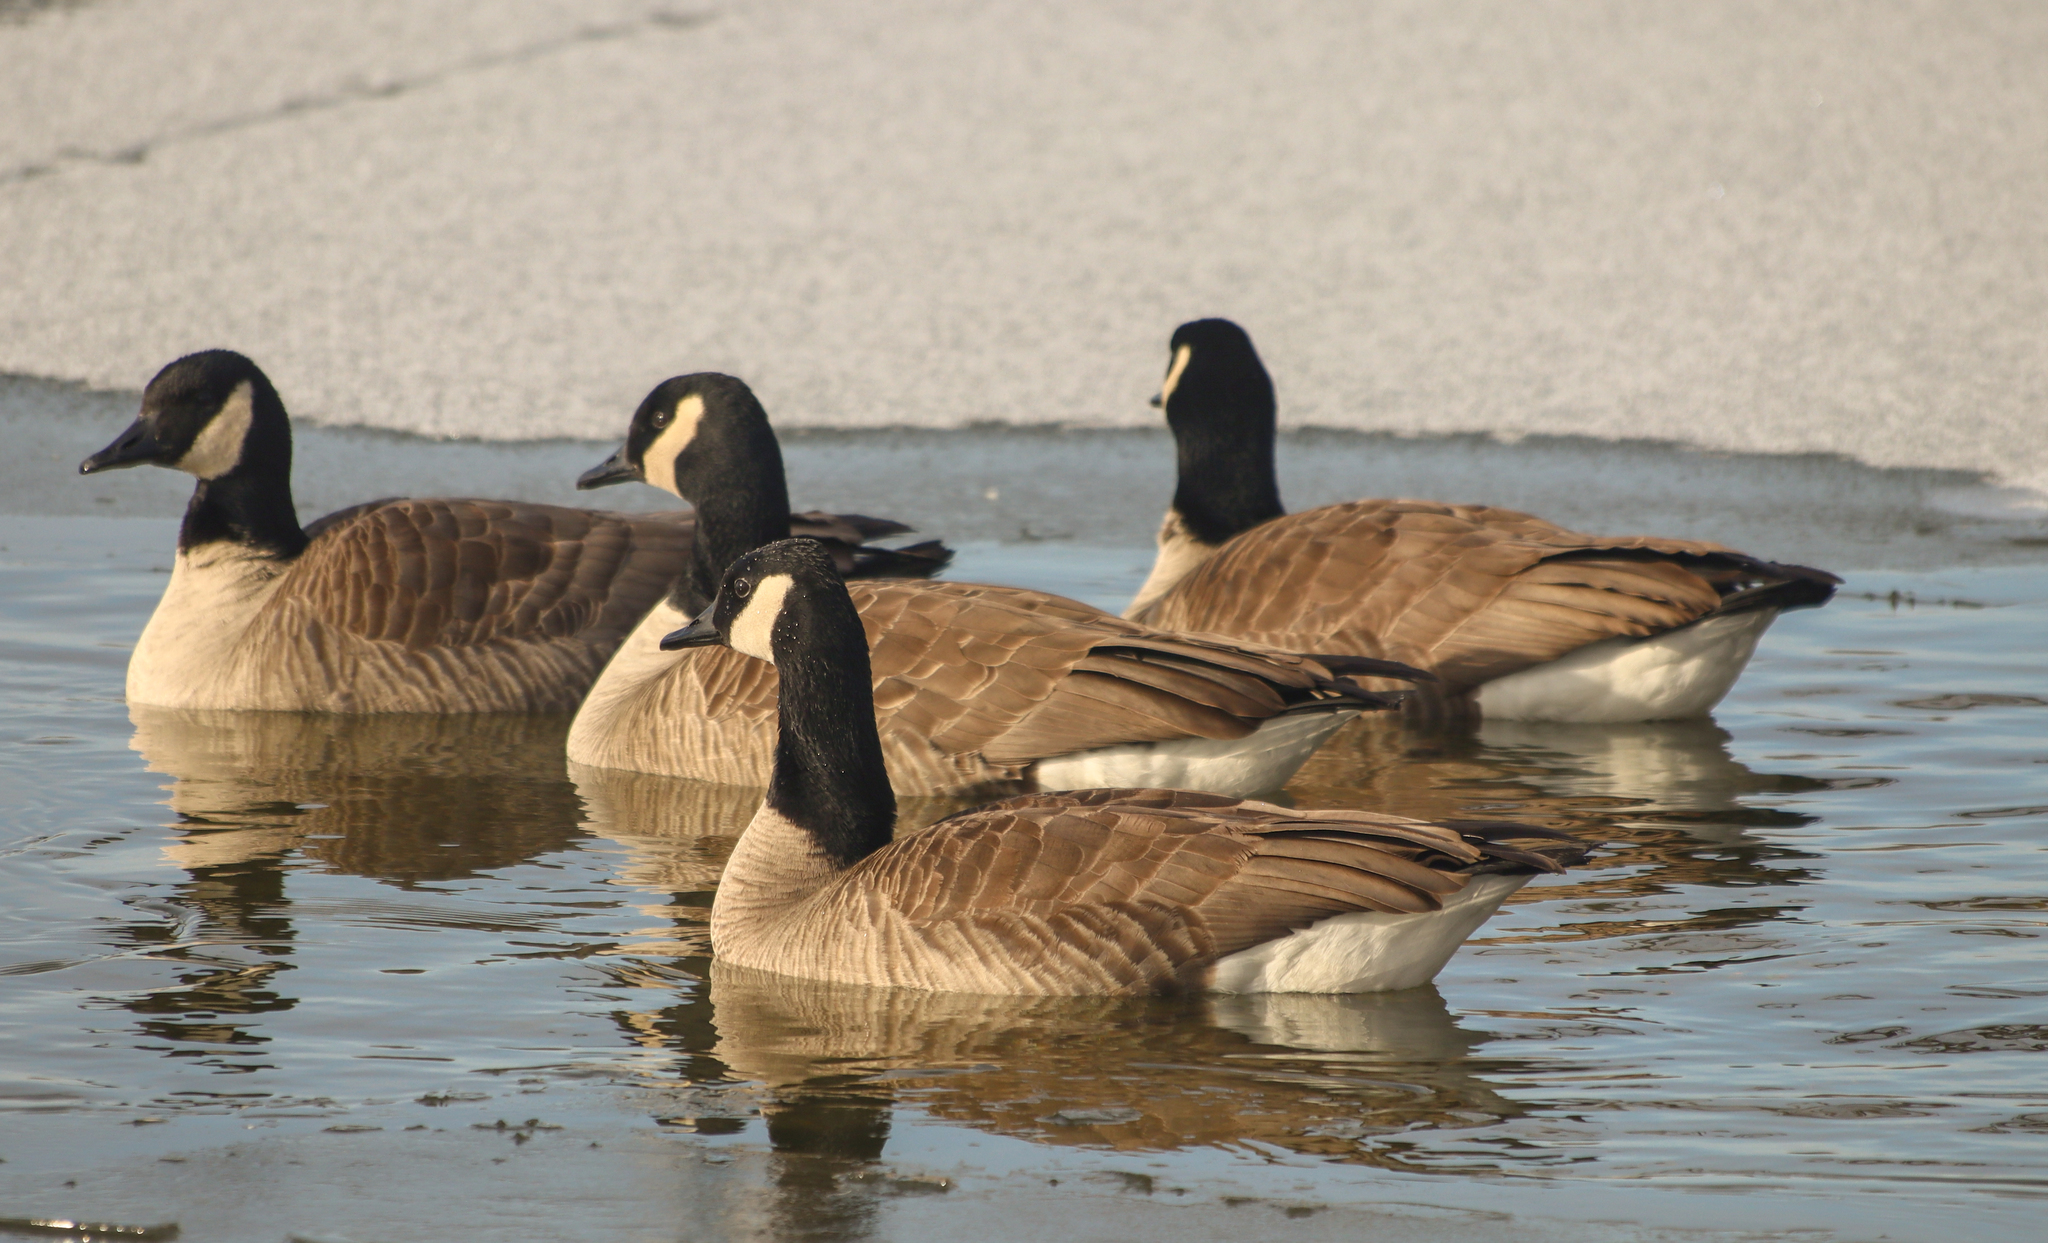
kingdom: Animalia
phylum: Chordata
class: Aves
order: Anseriformes
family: Anatidae
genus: Branta
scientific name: Branta canadensis
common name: Canada goose
